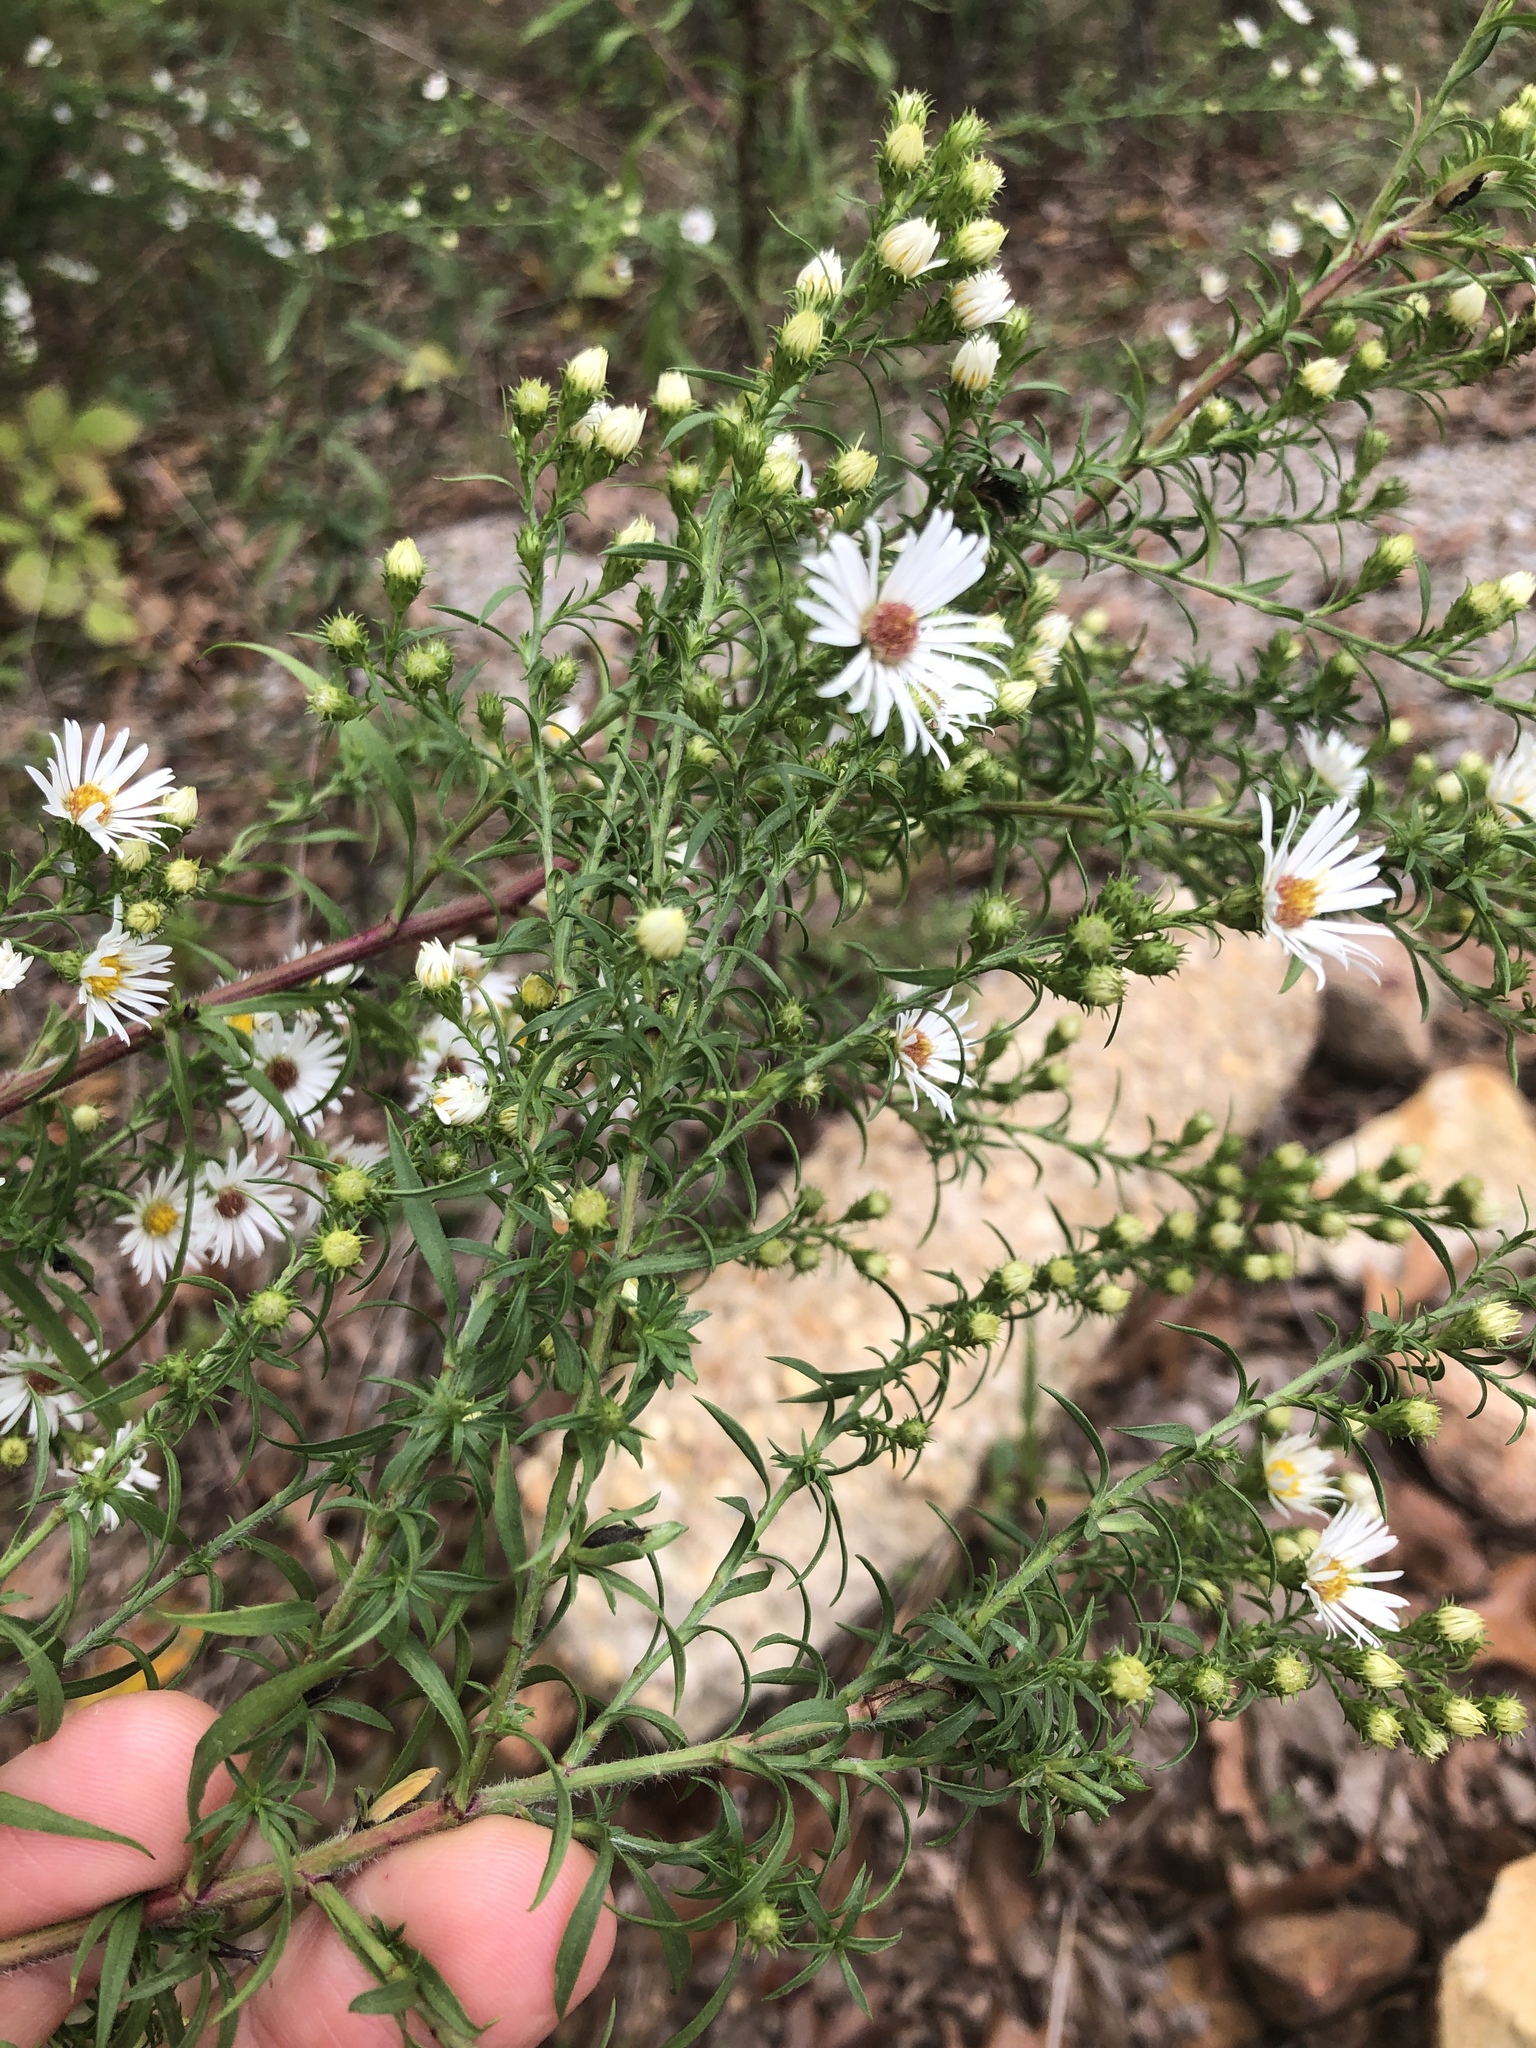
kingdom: Plantae
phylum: Tracheophyta
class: Magnoliopsida
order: Asterales
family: Asteraceae
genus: Symphyotrichum
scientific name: Symphyotrichum pilosum
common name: Awl aster
